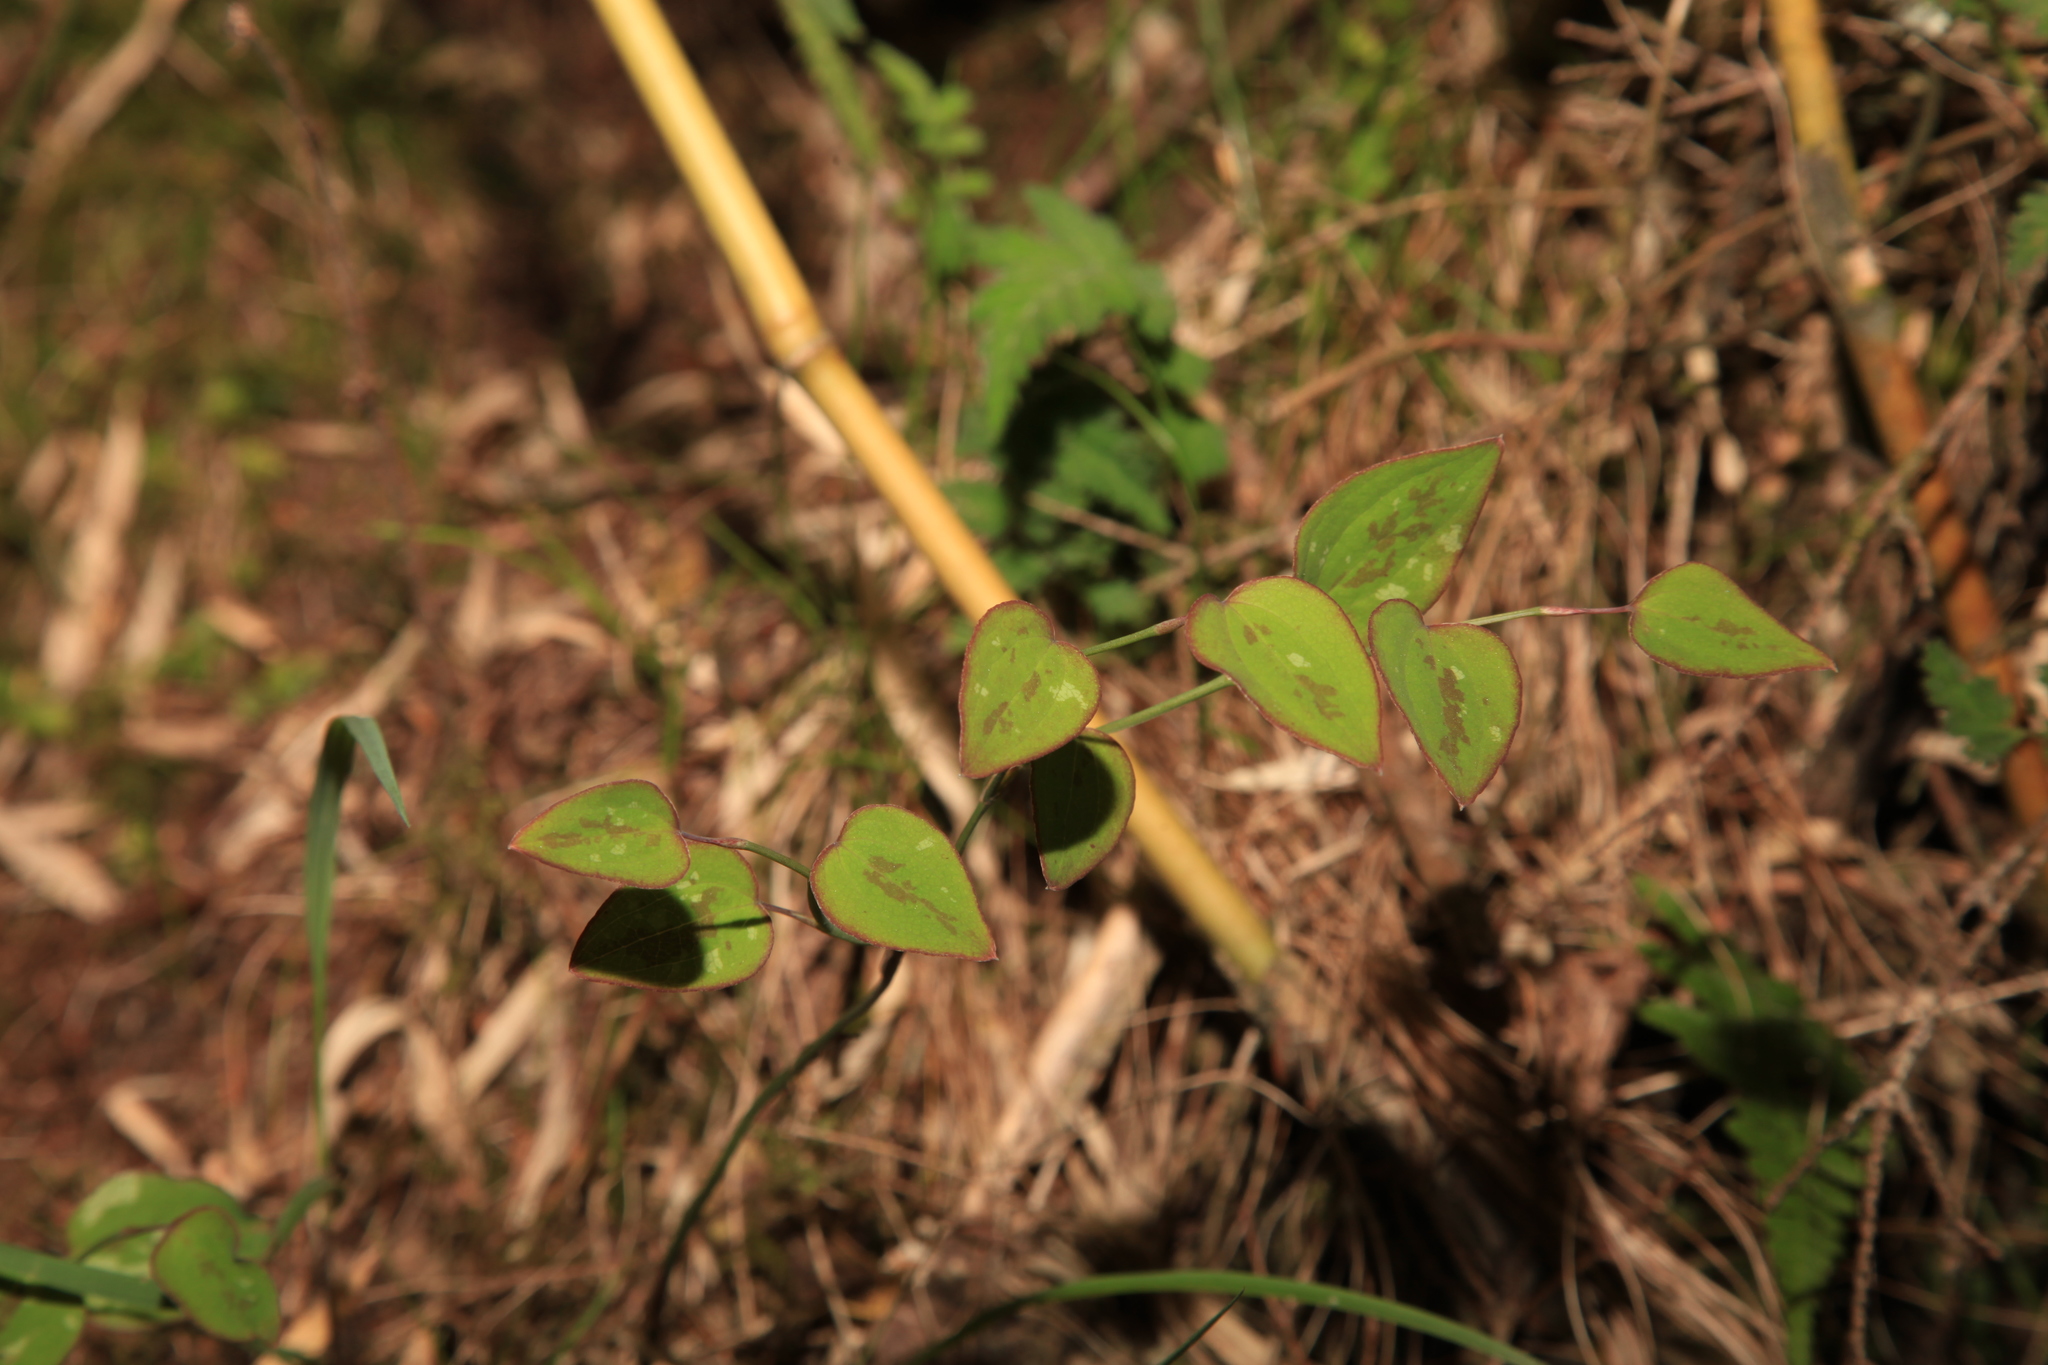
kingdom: Plantae
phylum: Tracheophyta
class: Liliopsida
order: Liliales
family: Smilacaceae
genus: Smilax
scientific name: Smilax vaginata
